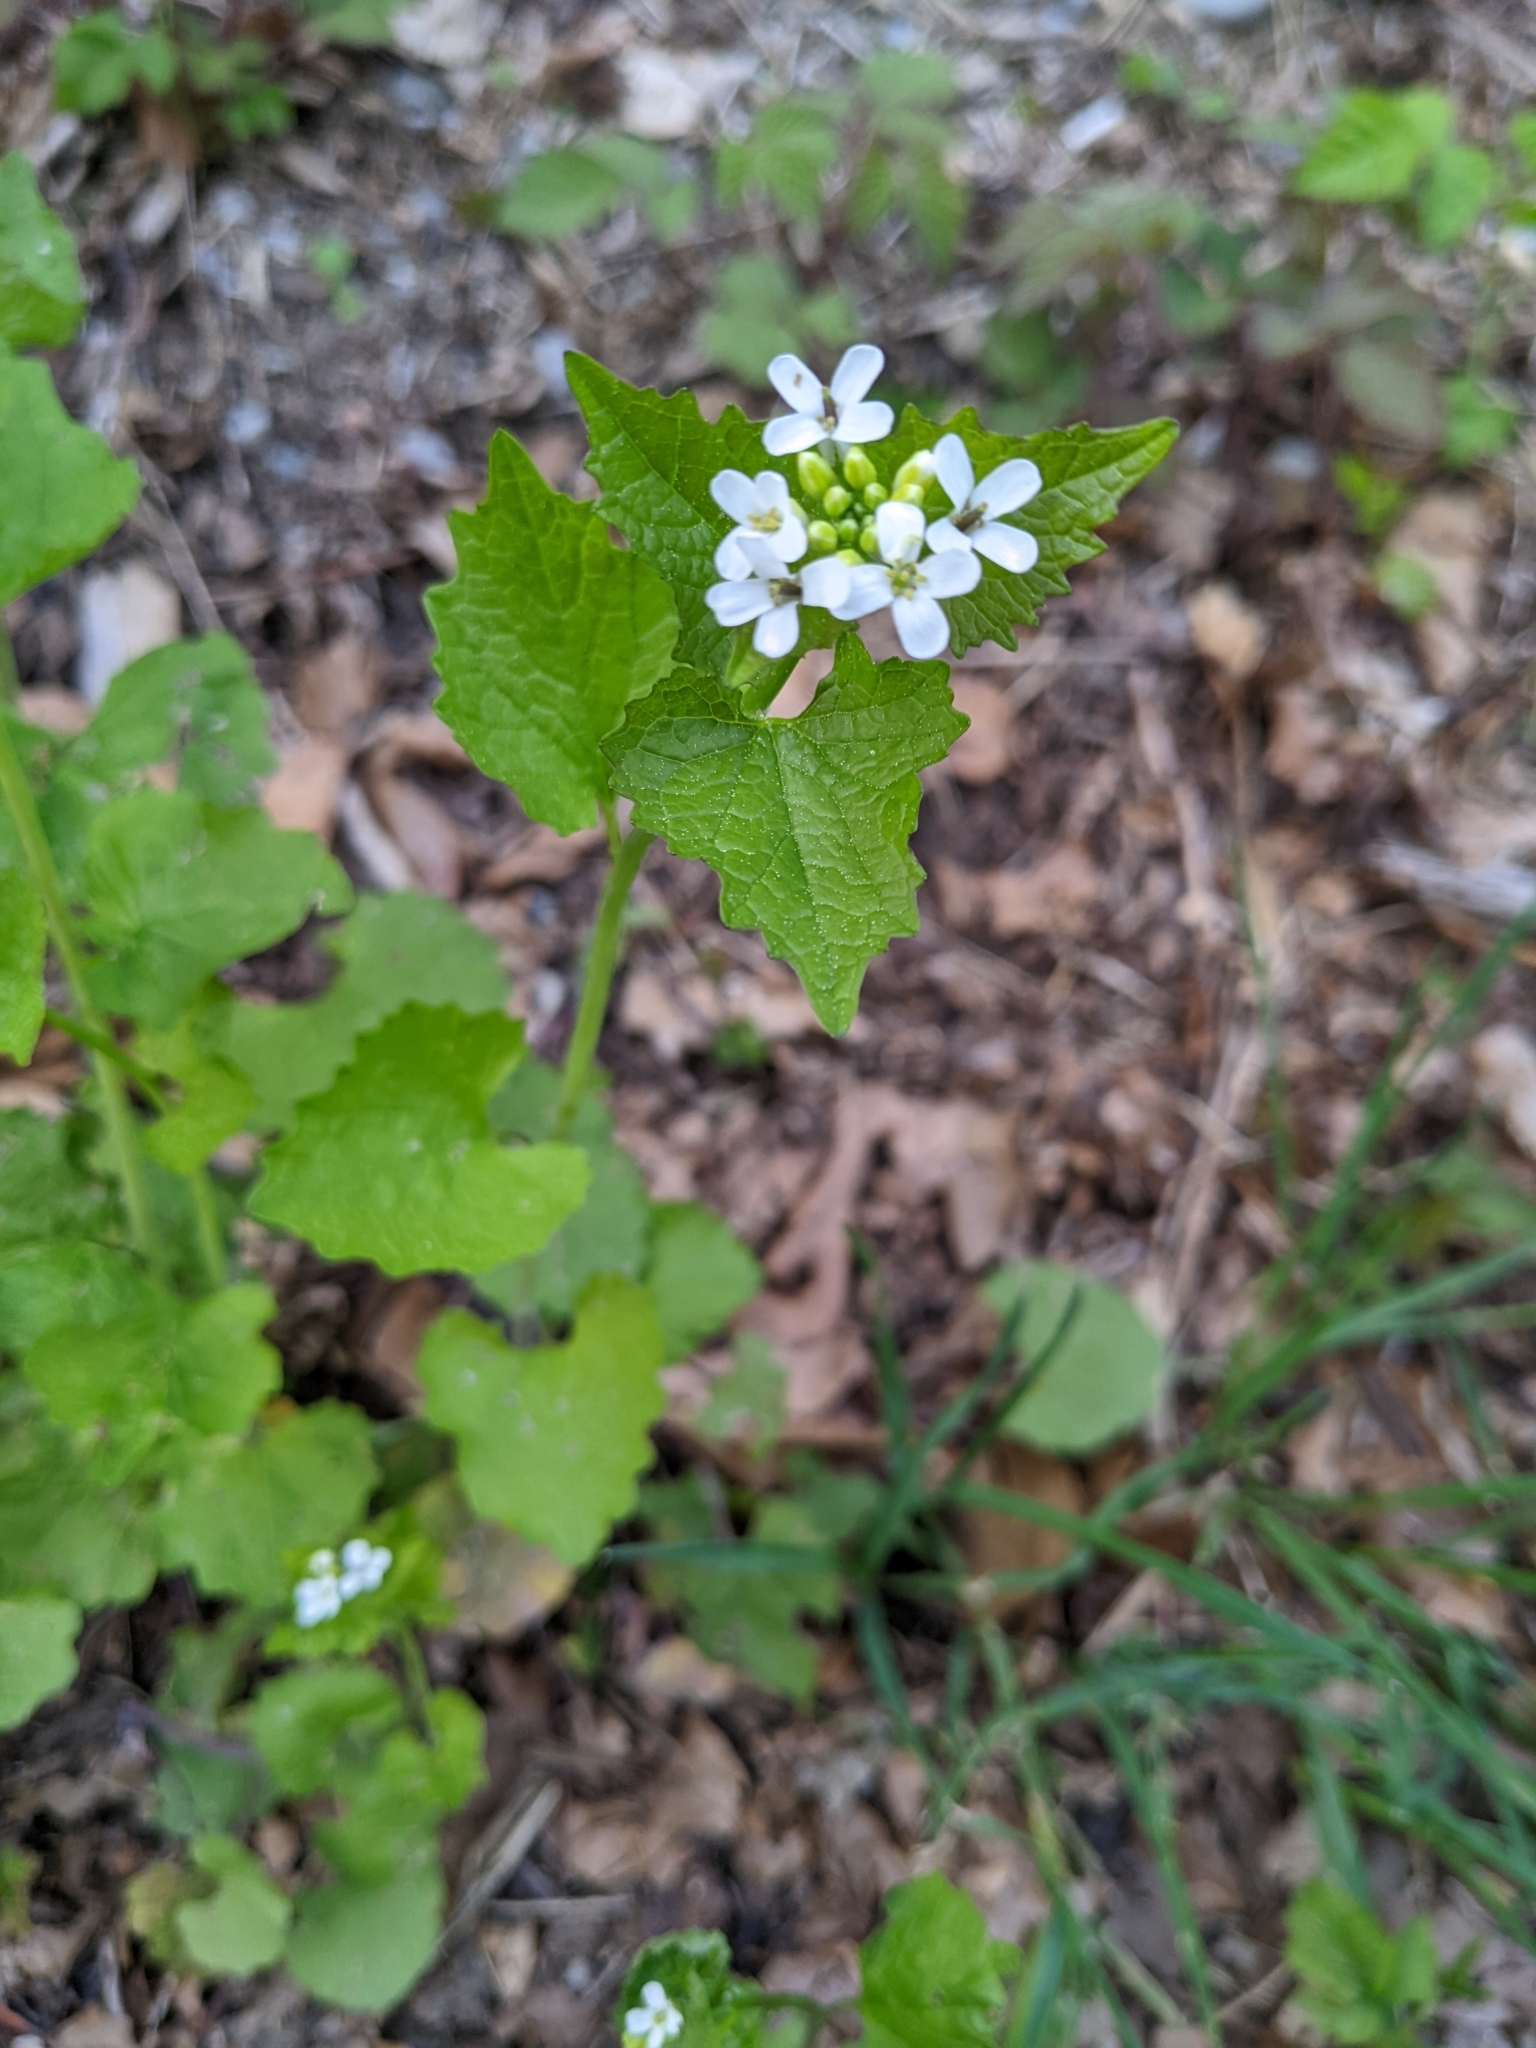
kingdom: Plantae
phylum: Tracheophyta
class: Magnoliopsida
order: Brassicales
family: Brassicaceae
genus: Alliaria
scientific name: Alliaria petiolata
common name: Garlic mustard
